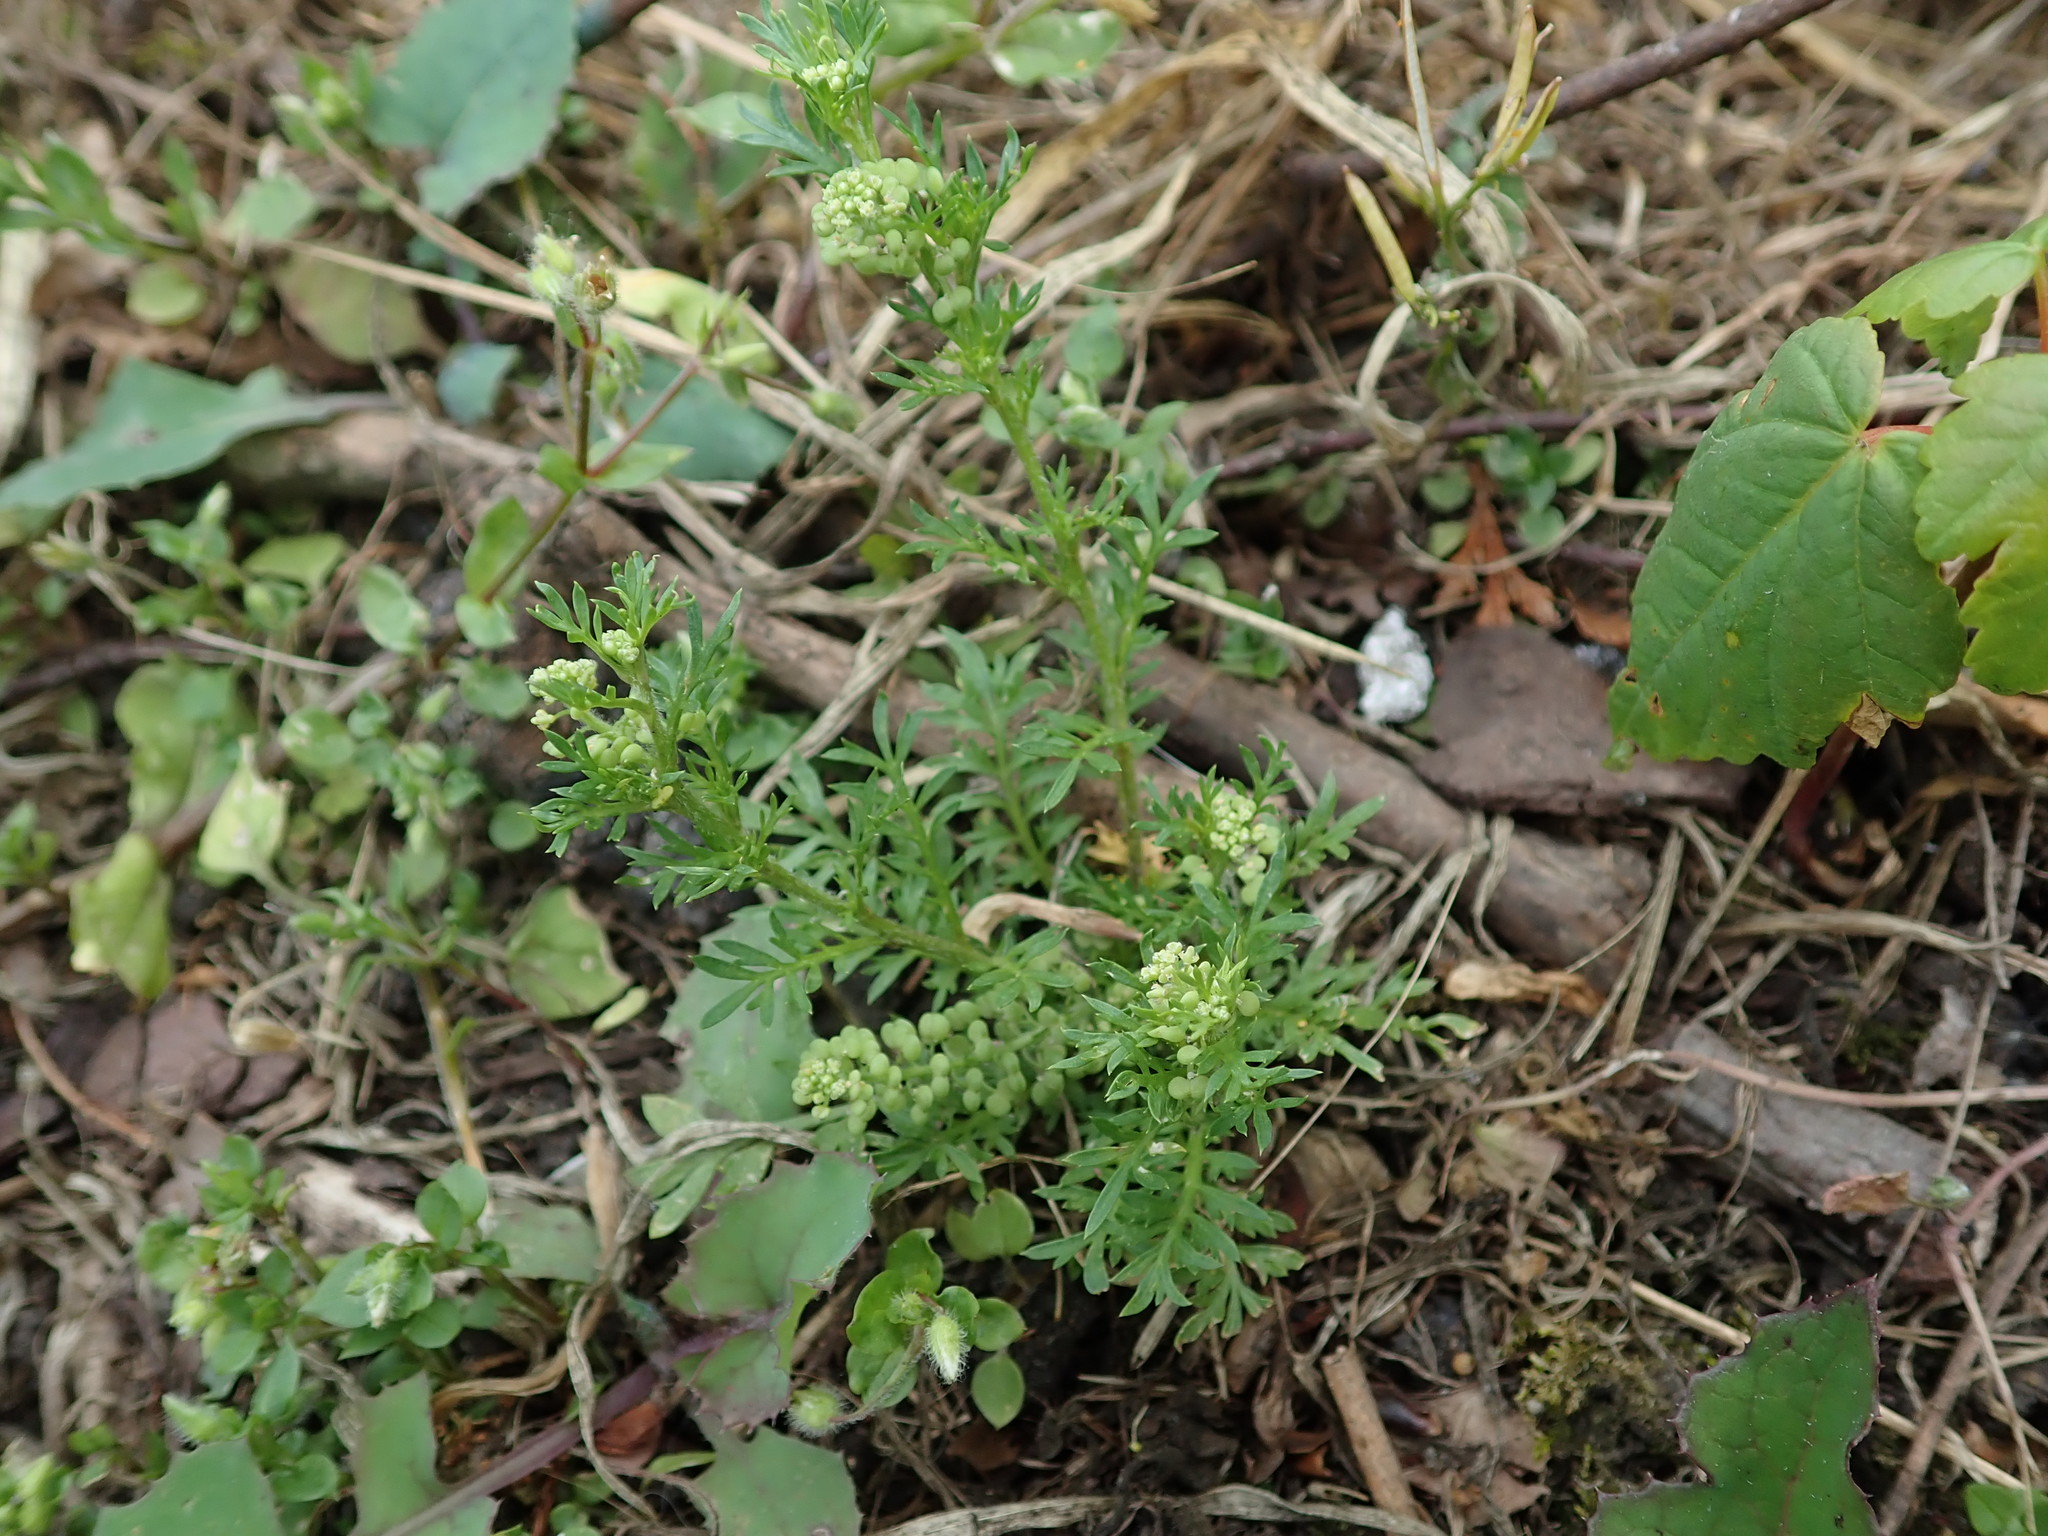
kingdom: Plantae
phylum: Tracheophyta
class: Magnoliopsida
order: Brassicales
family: Brassicaceae
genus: Lepidium
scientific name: Lepidium didymum
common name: Lesser swinecress
